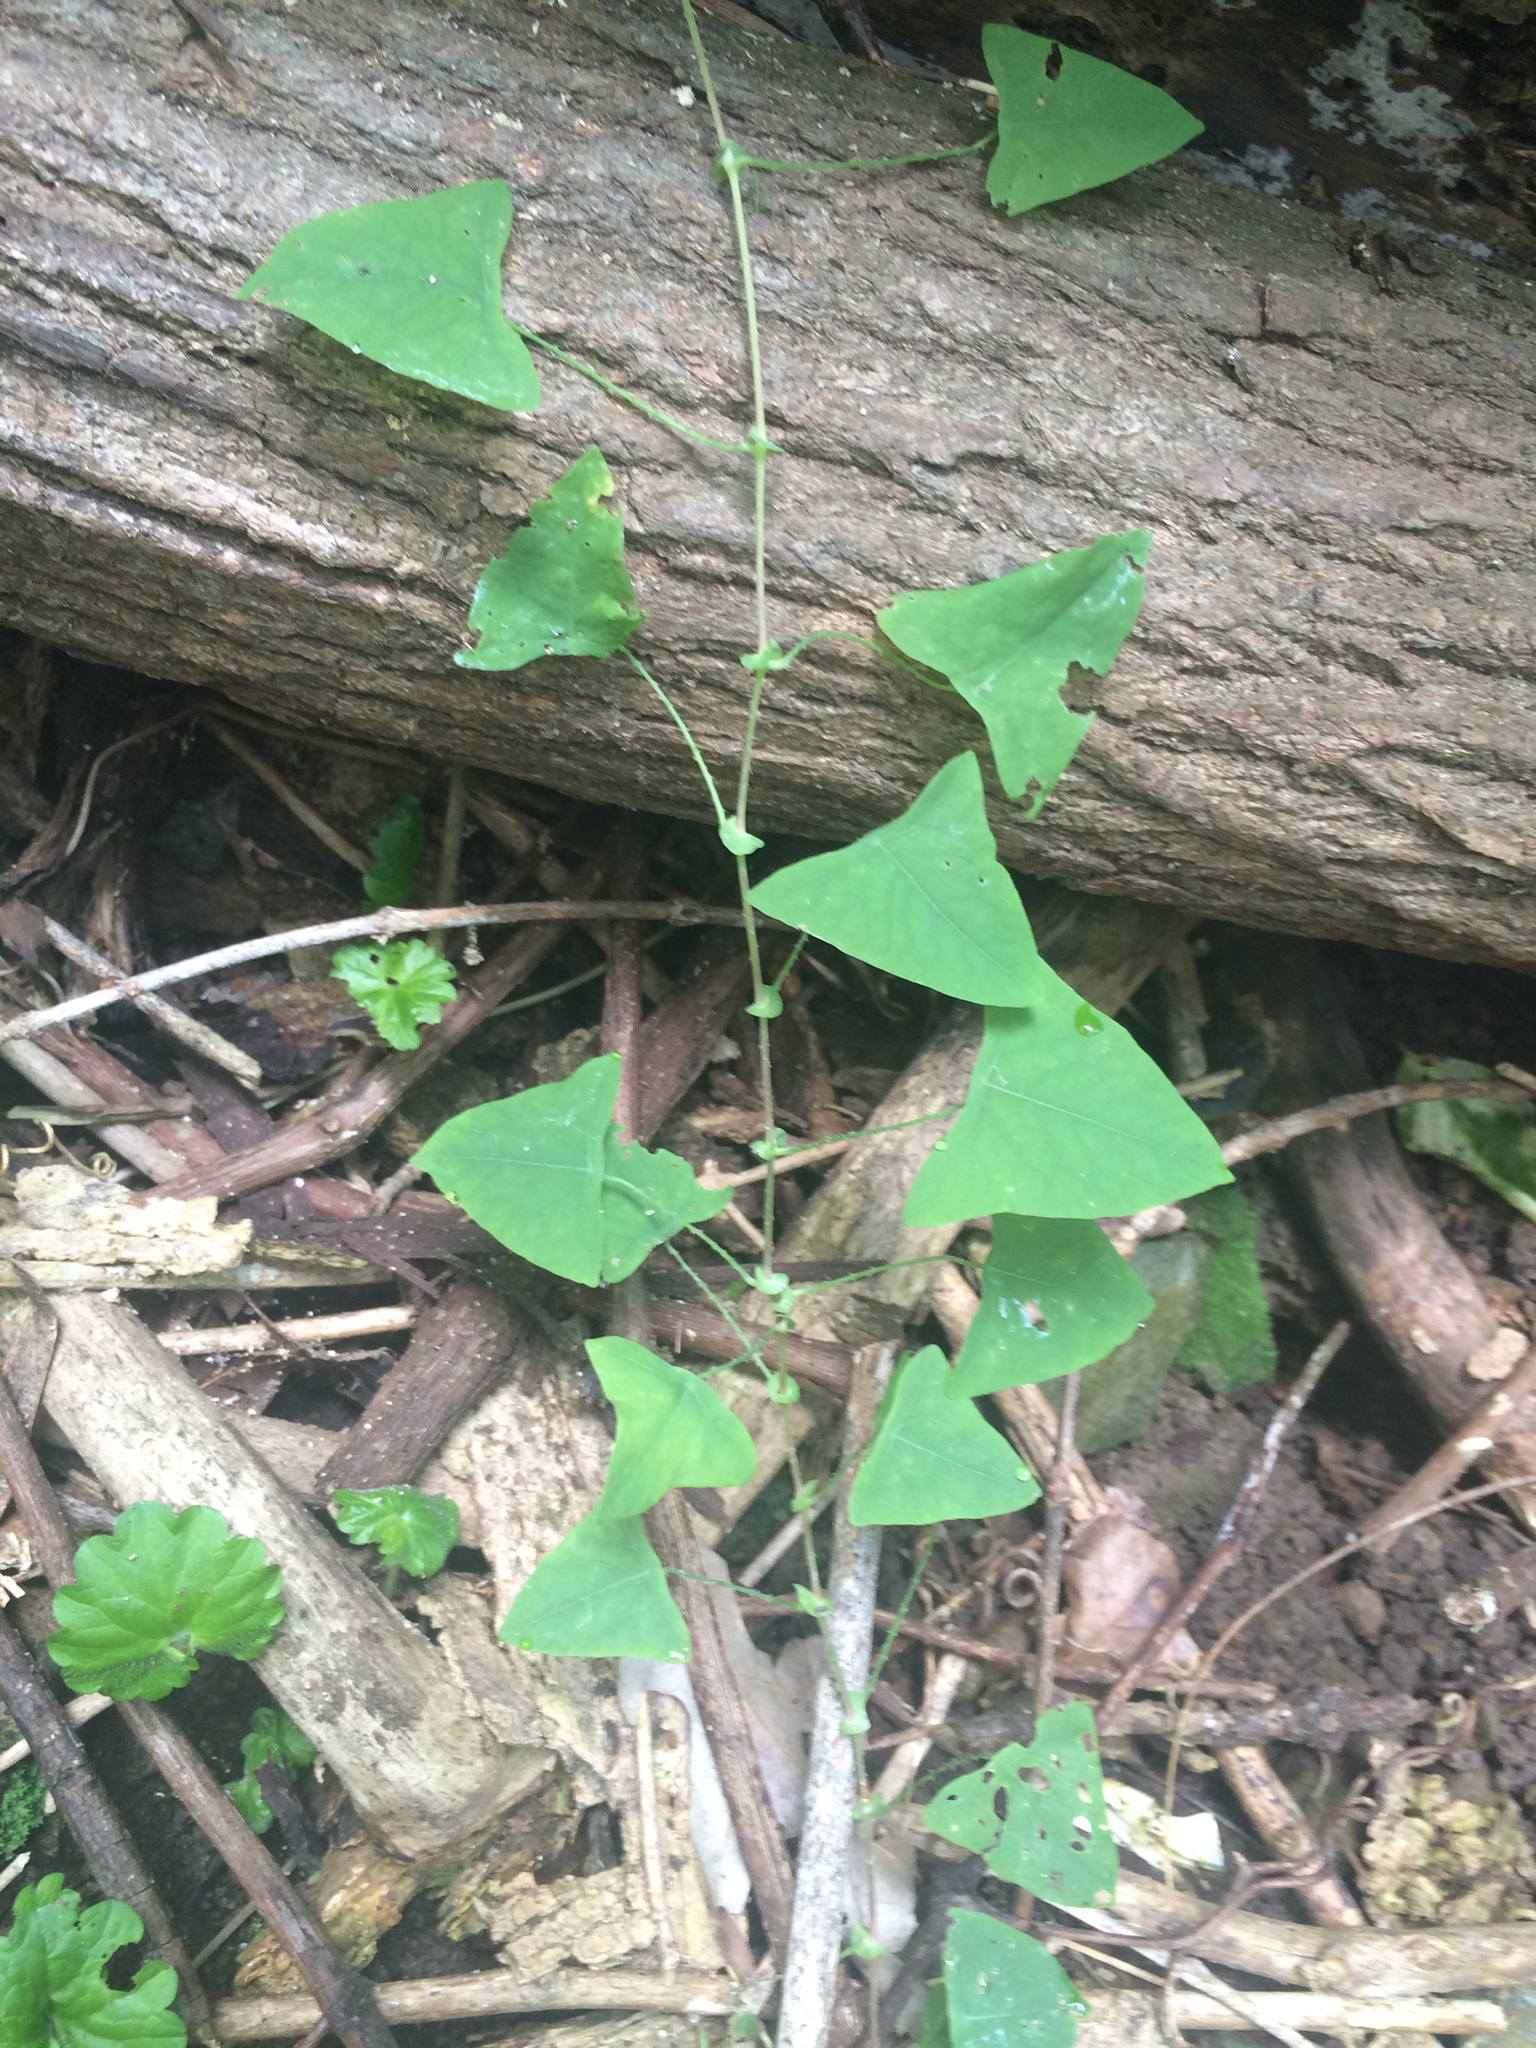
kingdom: Plantae
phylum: Tracheophyta
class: Magnoliopsida
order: Caryophyllales
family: Polygonaceae
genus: Persicaria
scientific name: Persicaria perfoliata
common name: Asiatic tearthumb
